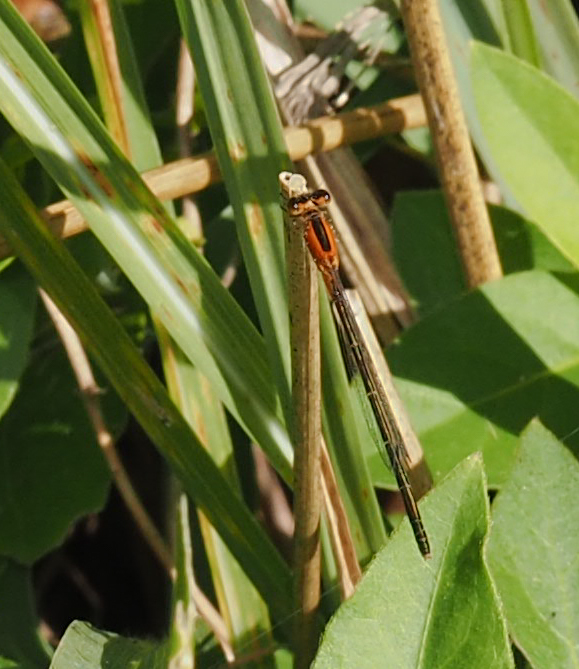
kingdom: Animalia
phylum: Arthropoda
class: Insecta
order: Odonata
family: Coenagrionidae
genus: Ischnura
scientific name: Ischnura ramburii
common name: Rambur's forktail
